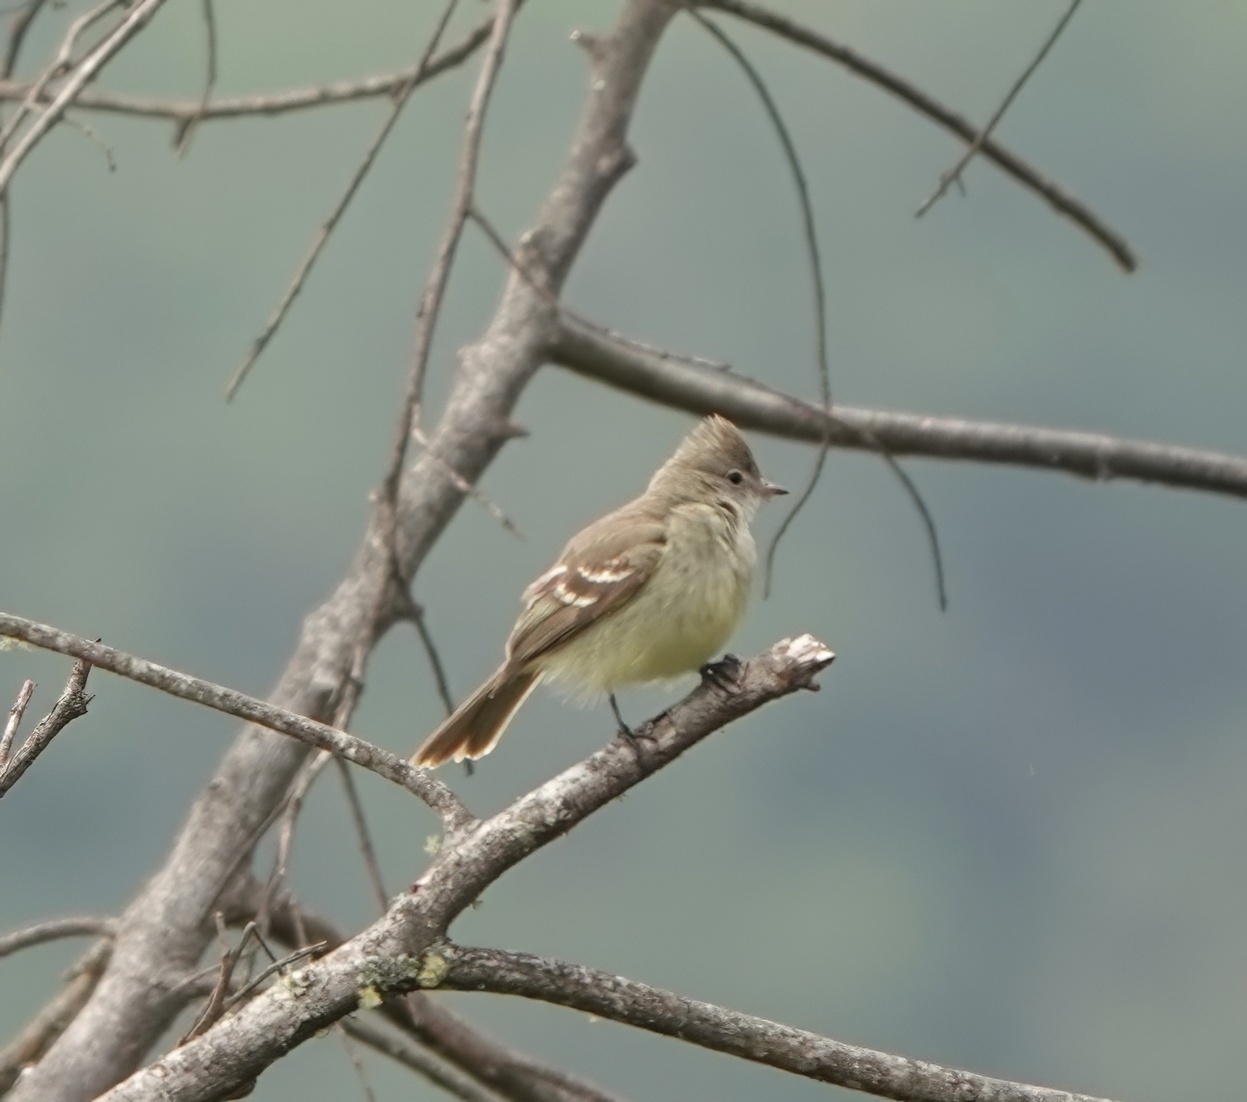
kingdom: Animalia
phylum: Chordata
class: Aves
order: Passeriformes
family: Tyrannidae
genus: Elaenia
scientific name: Elaenia flavogaster
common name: Yellow-bellied elaenia
